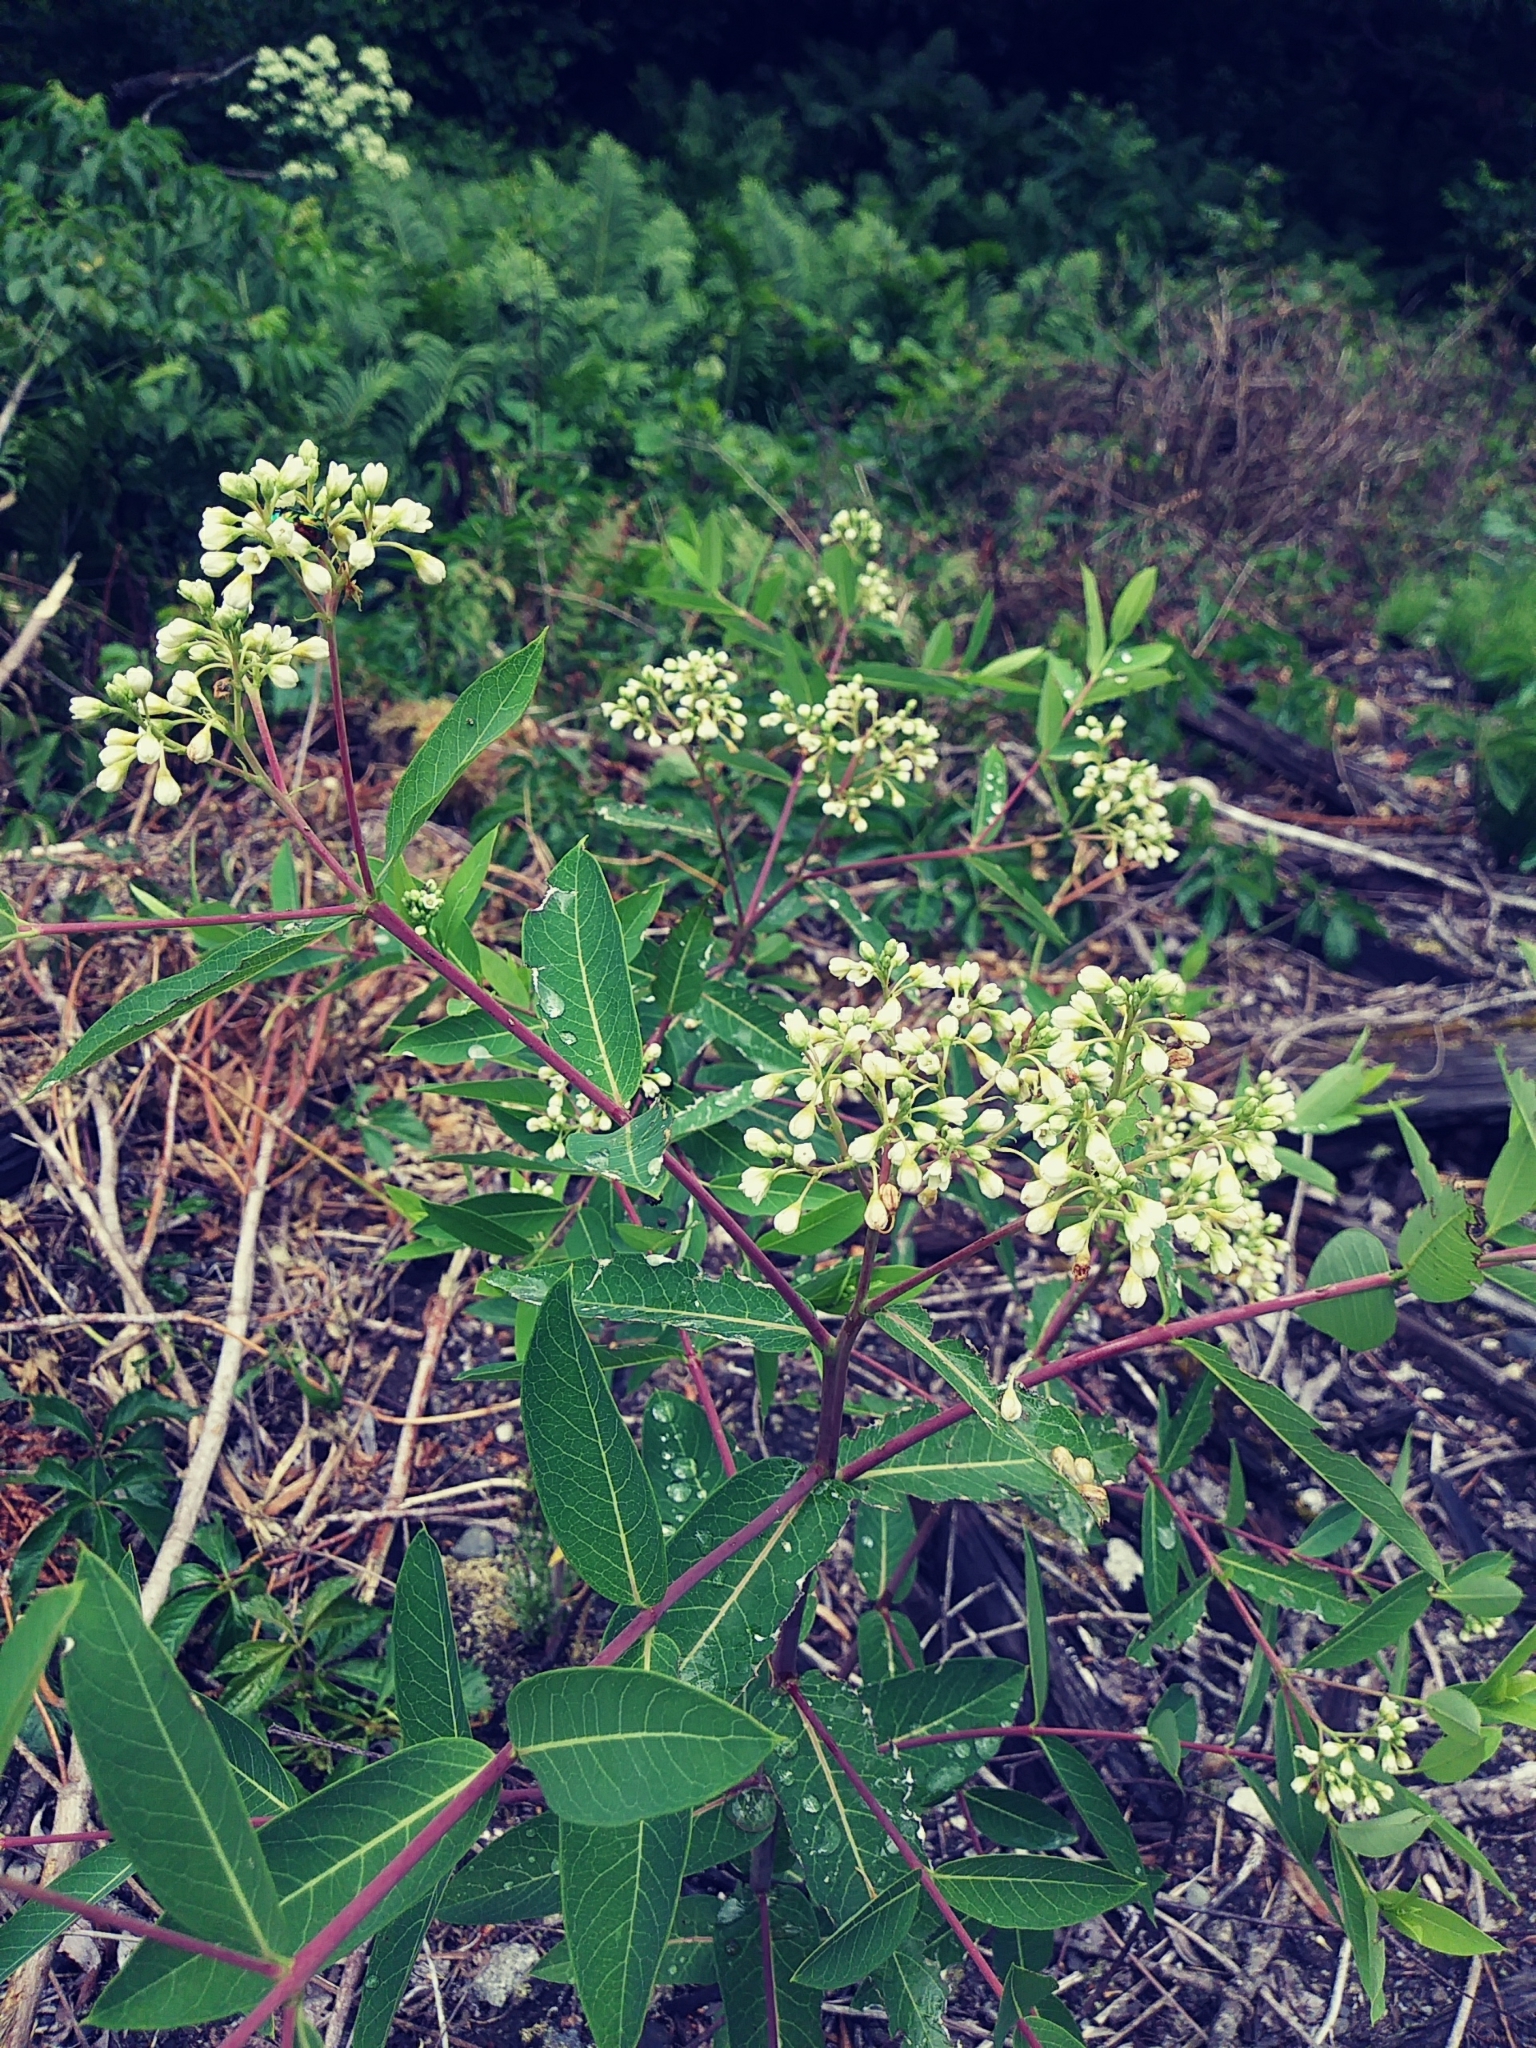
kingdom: Plantae
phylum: Tracheophyta
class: Magnoliopsida
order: Gentianales
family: Apocynaceae
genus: Apocynum
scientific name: Apocynum cannabinum
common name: Hemp dogbane
